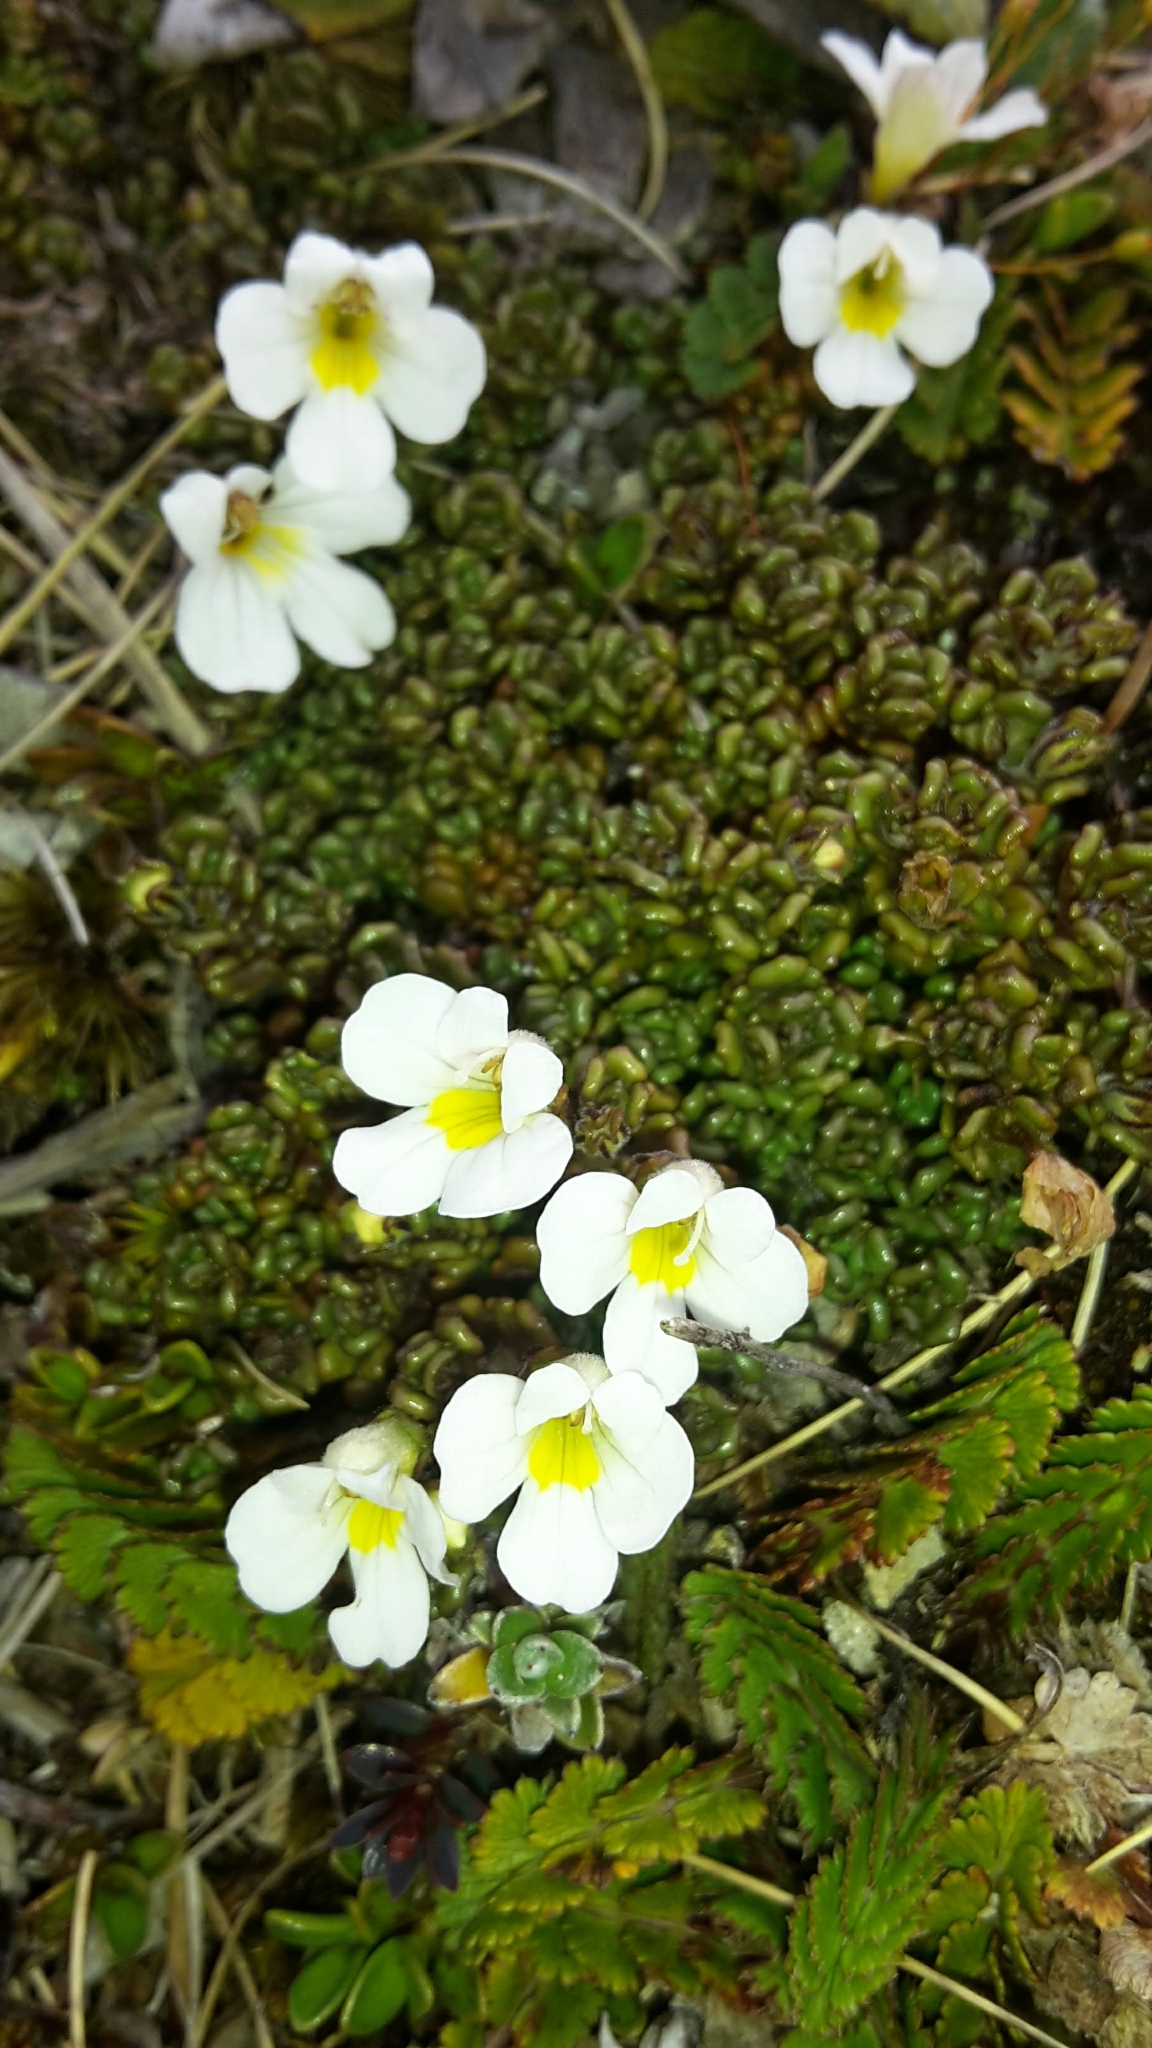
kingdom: Plantae
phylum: Tracheophyta
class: Magnoliopsida
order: Lamiales
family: Orobanchaceae
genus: Euphrasia
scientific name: Euphrasia revoluta
